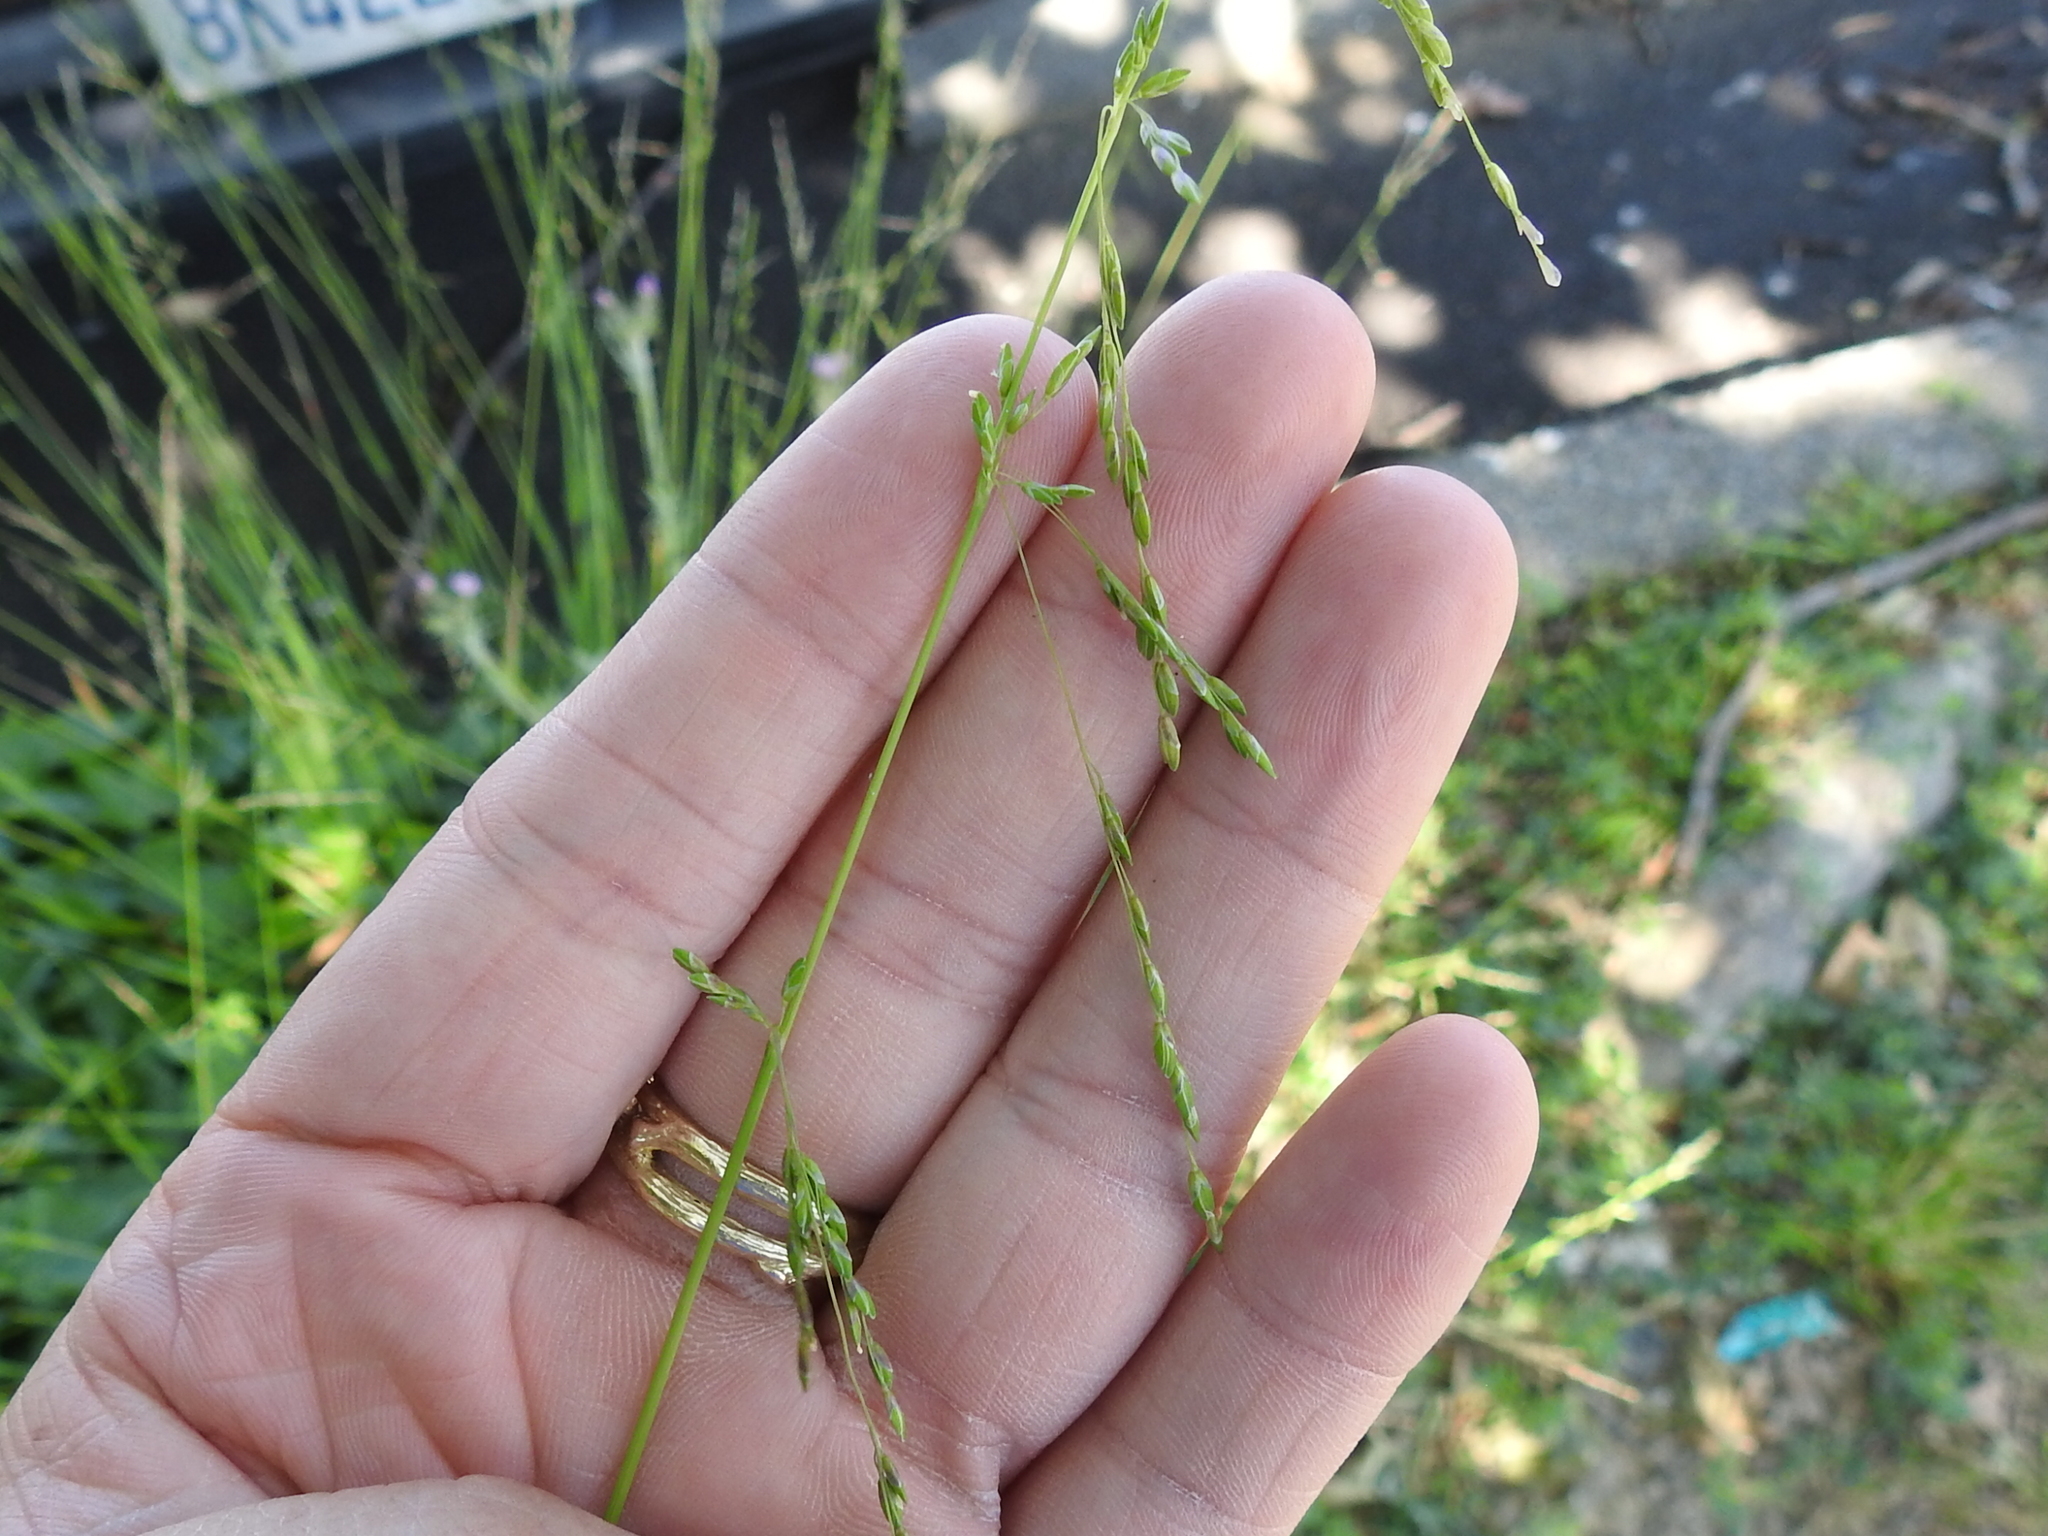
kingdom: Plantae
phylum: Tracheophyta
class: Liliopsida
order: Poales
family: Poaceae
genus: Ehrharta
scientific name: Ehrharta erecta
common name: Panic veldtgrass
